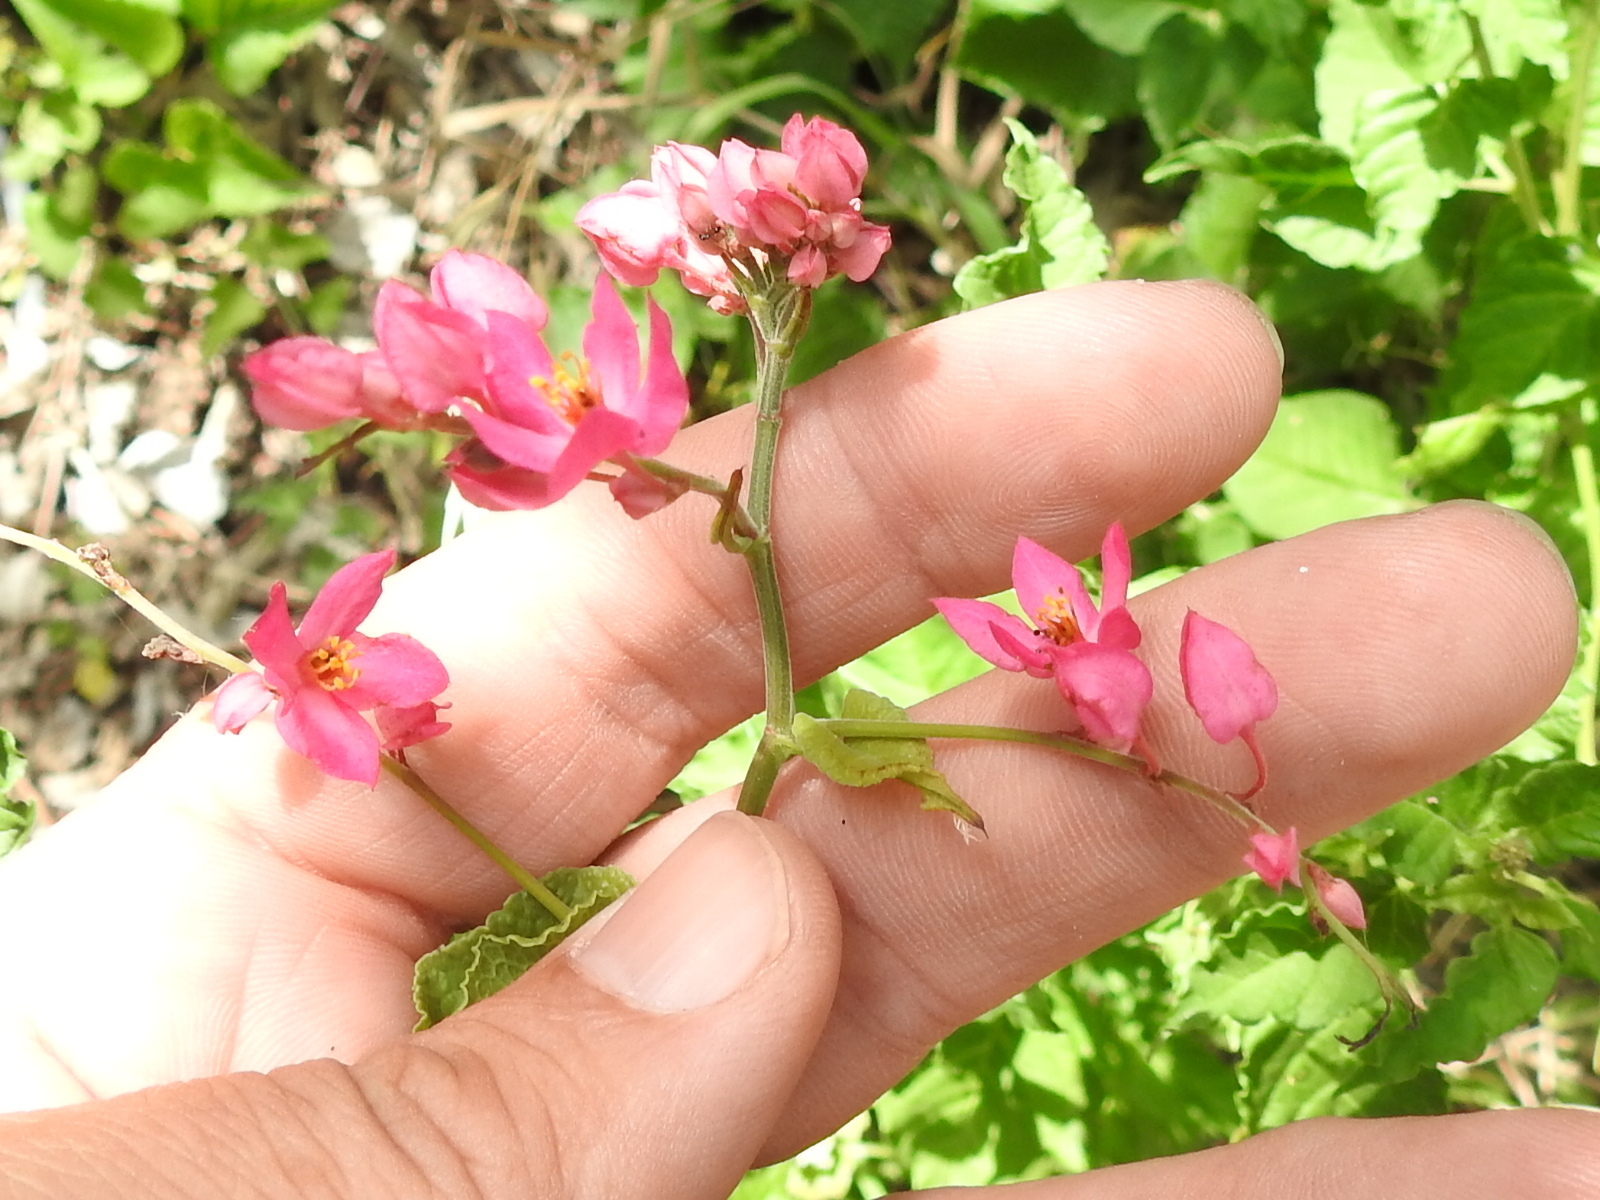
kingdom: Plantae
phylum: Tracheophyta
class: Magnoliopsida
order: Caryophyllales
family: Polygonaceae
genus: Antigonon
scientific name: Antigonon leptopus
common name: Coral vine
